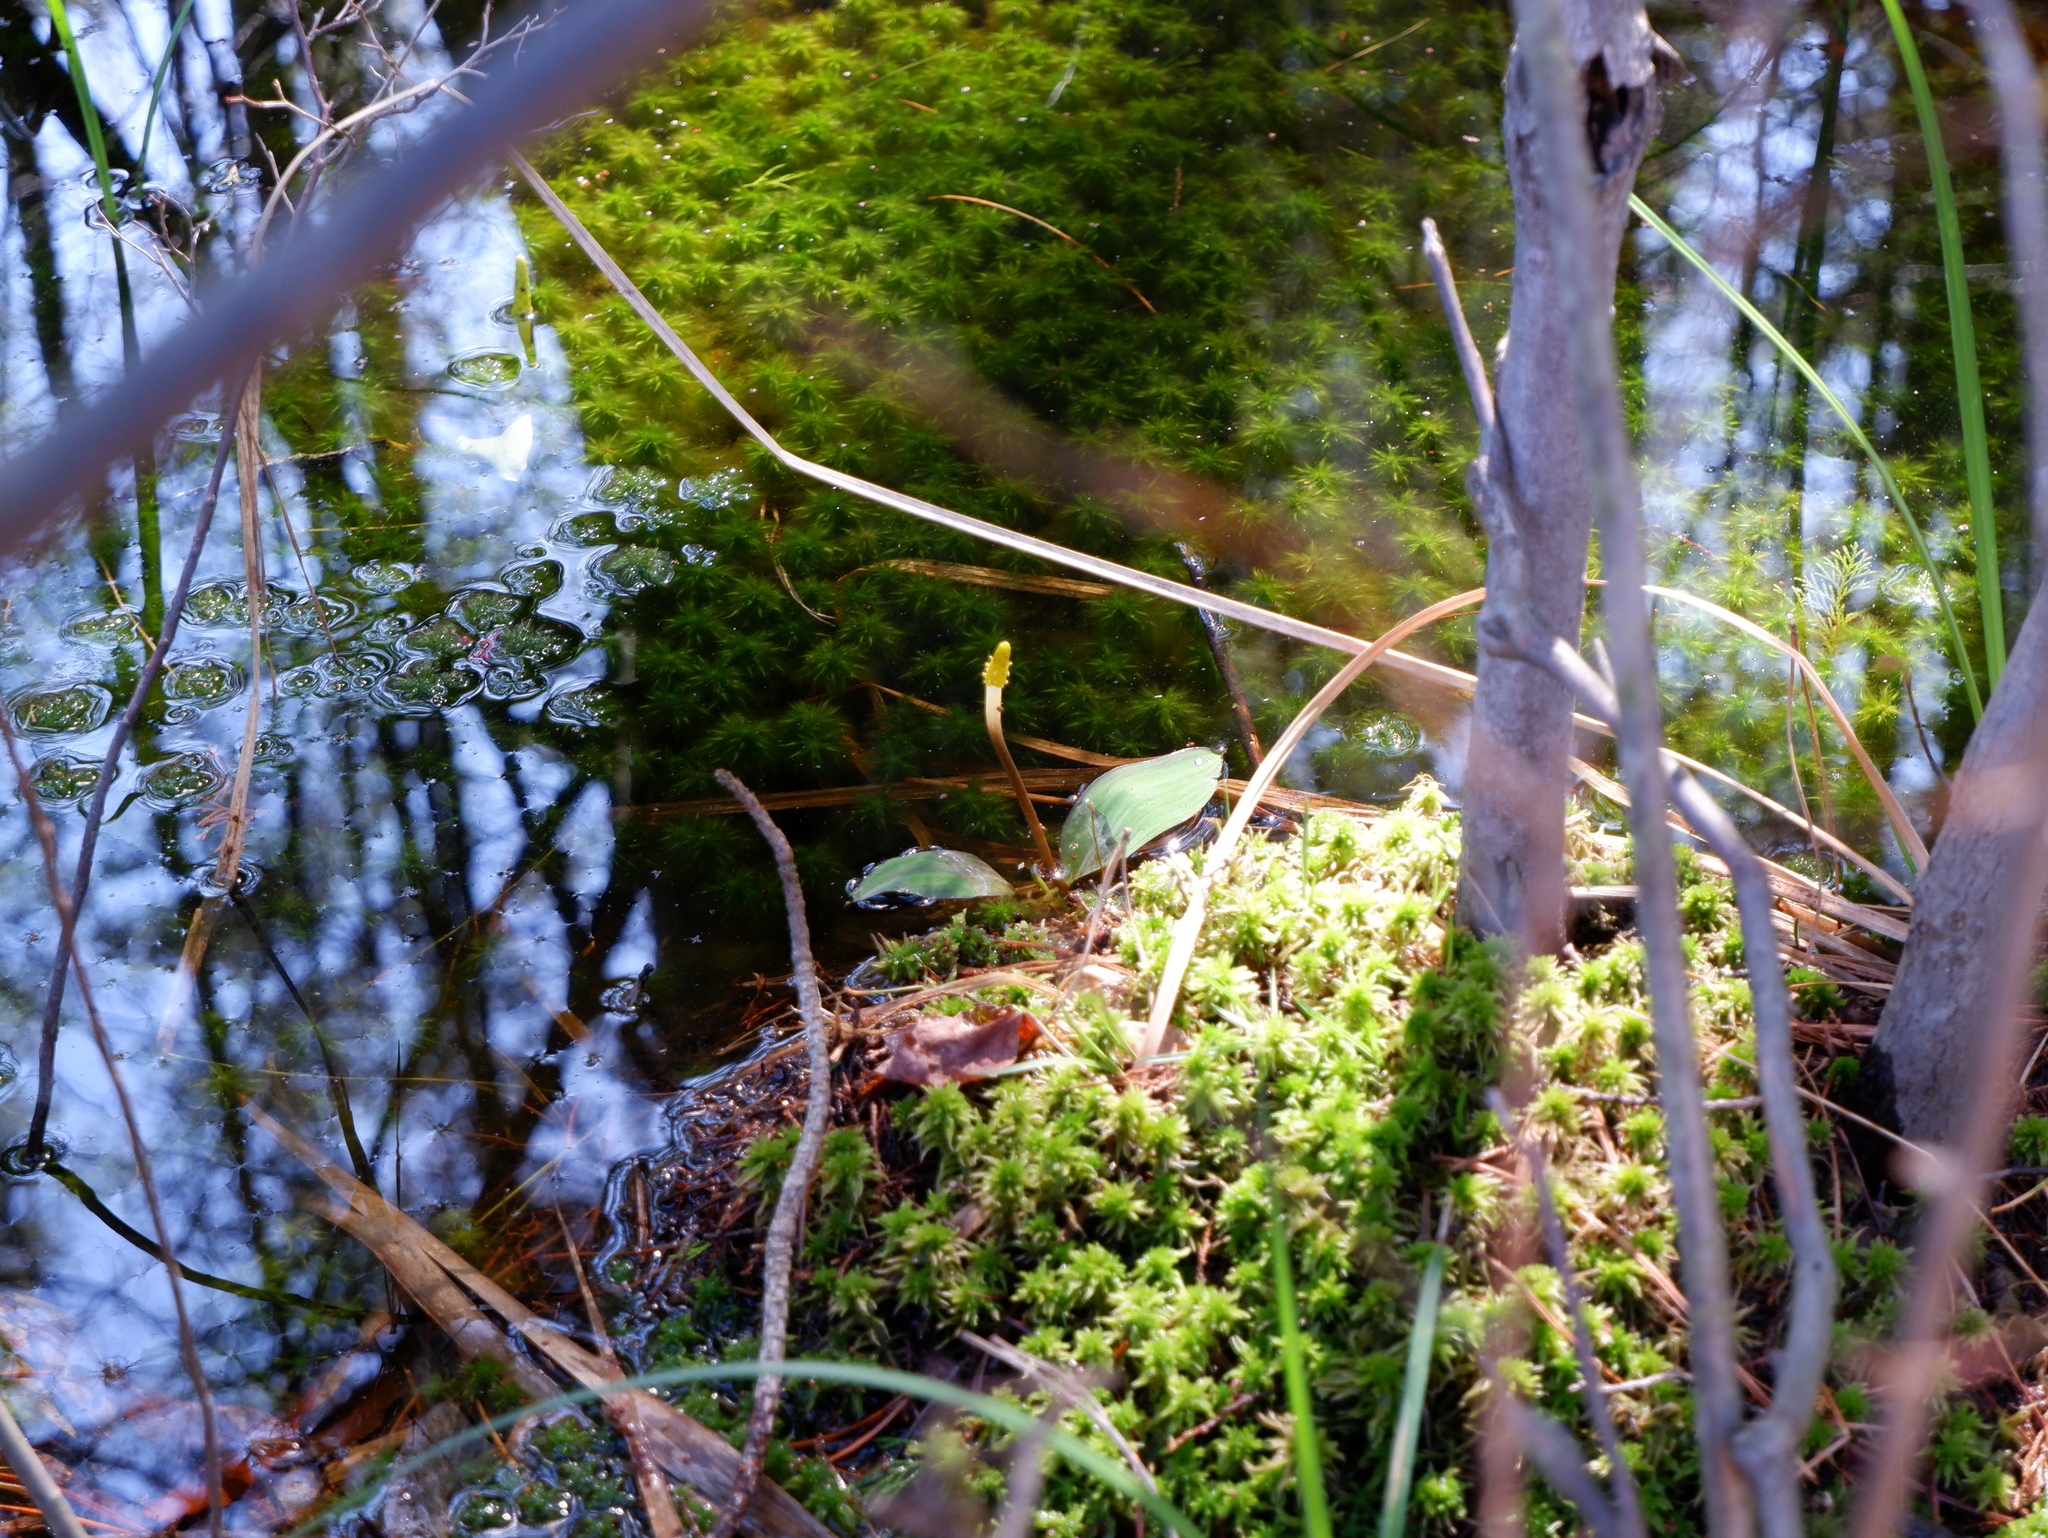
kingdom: Plantae
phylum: Tracheophyta
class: Liliopsida
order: Alismatales
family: Araceae
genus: Orontium
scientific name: Orontium aquaticum
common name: Golden-club
